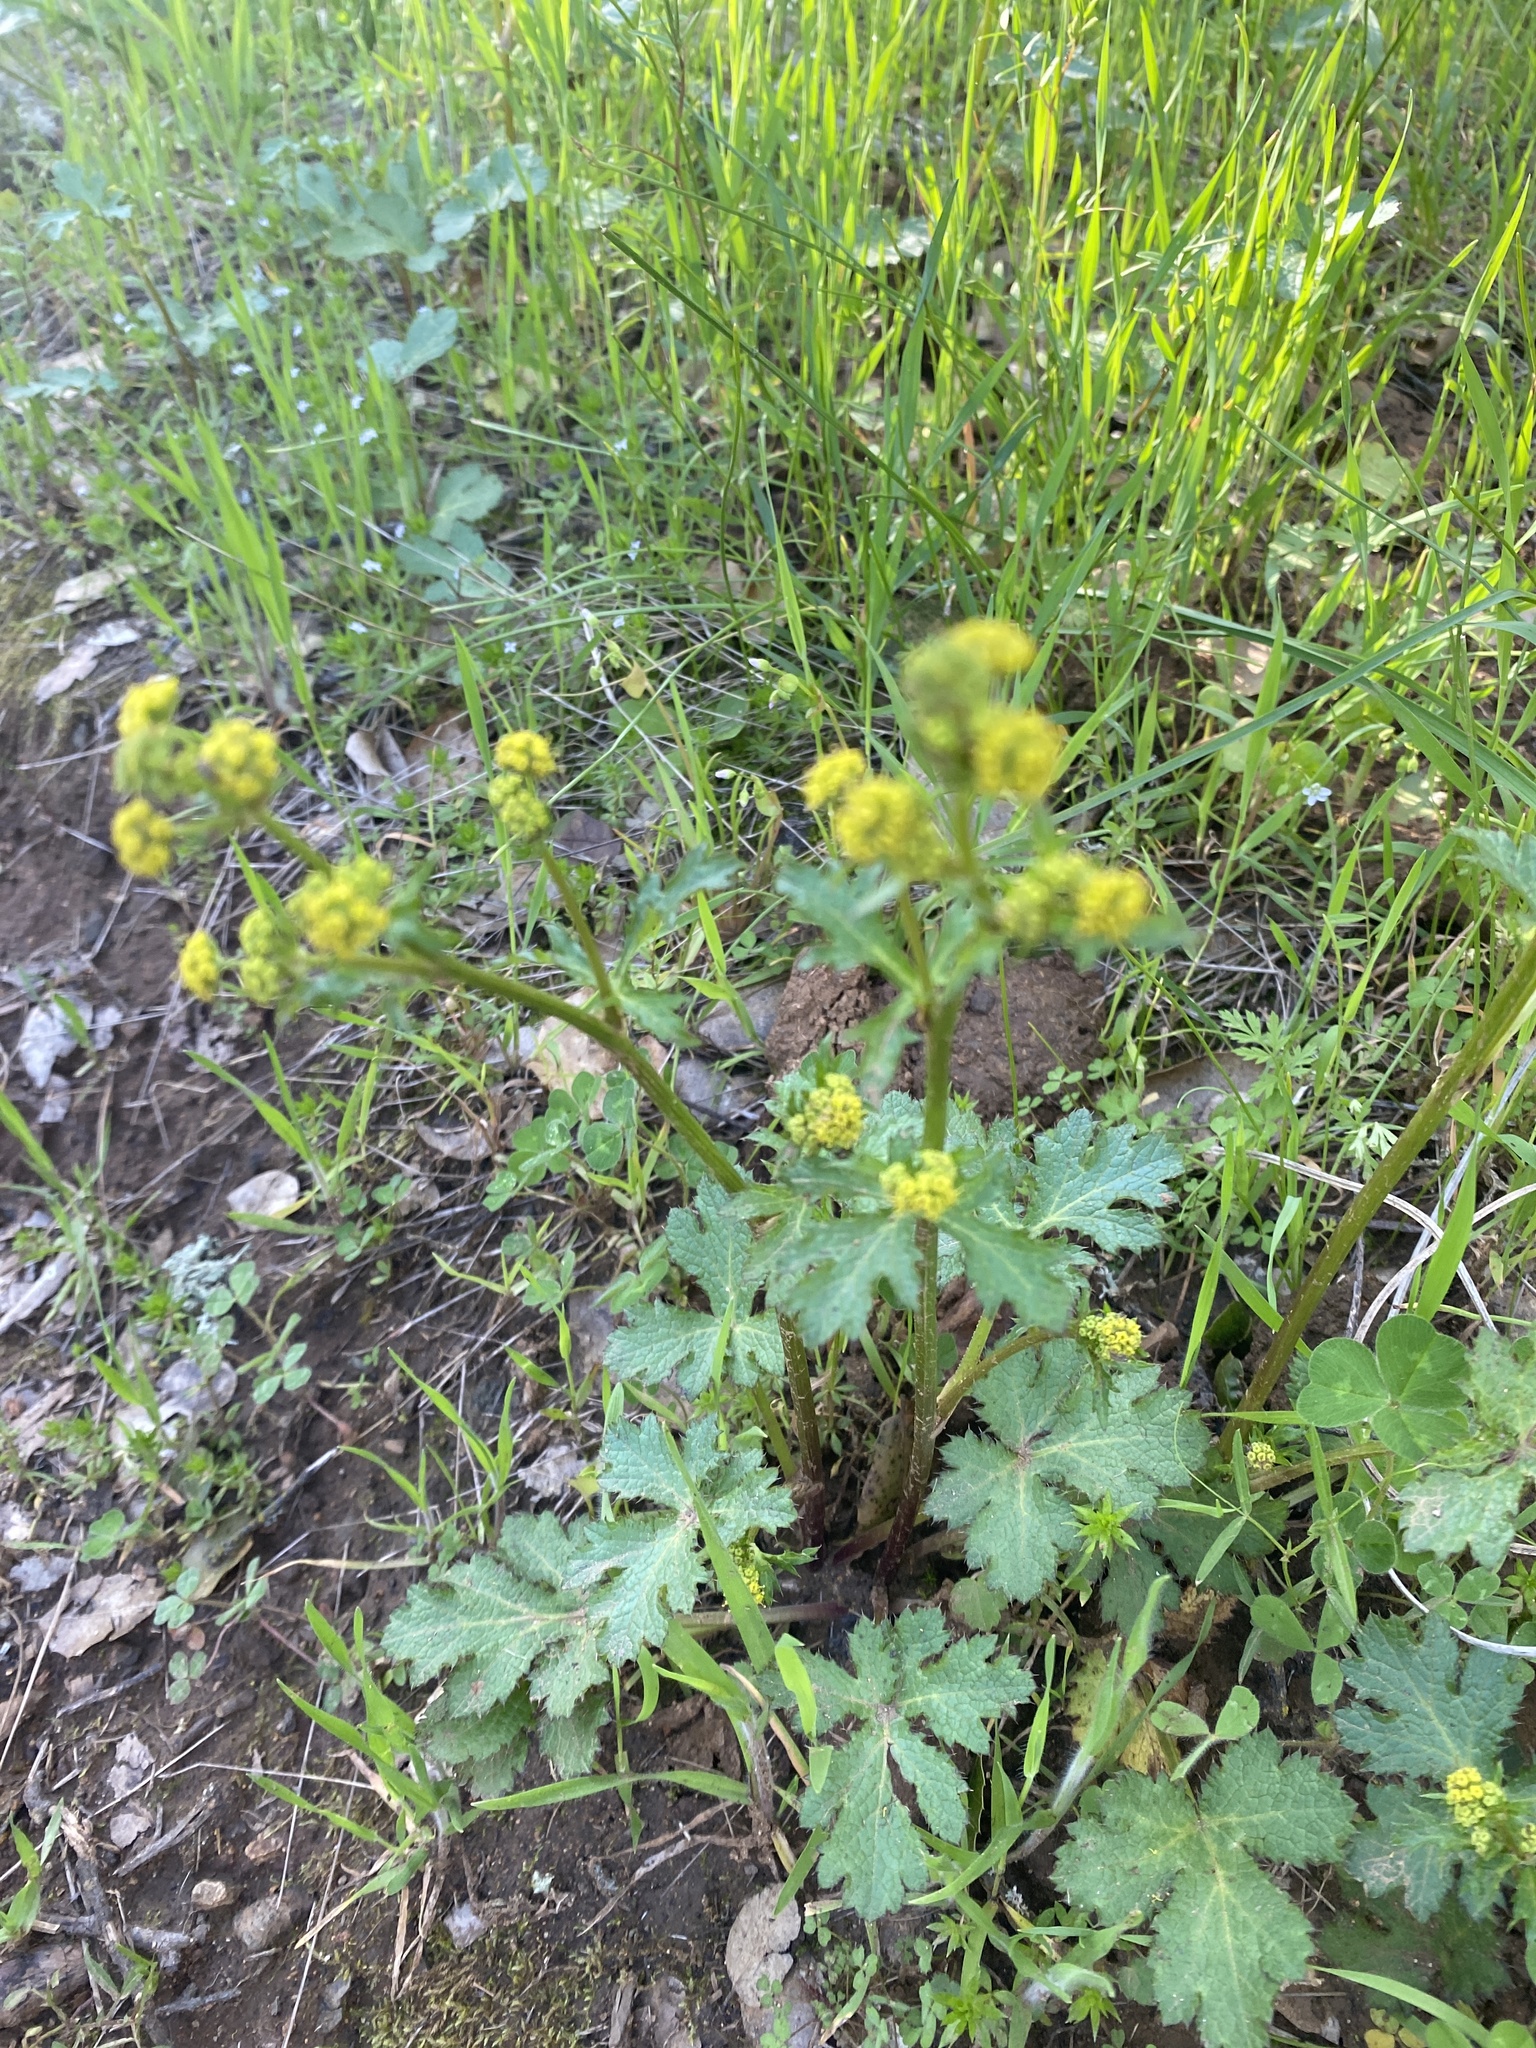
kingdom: Plantae
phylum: Tracheophyta
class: Magnoliopsida
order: Apiales
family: Apiaceae
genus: Sanicula
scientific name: Sanicula crassicaulis
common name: Western snakeroot
